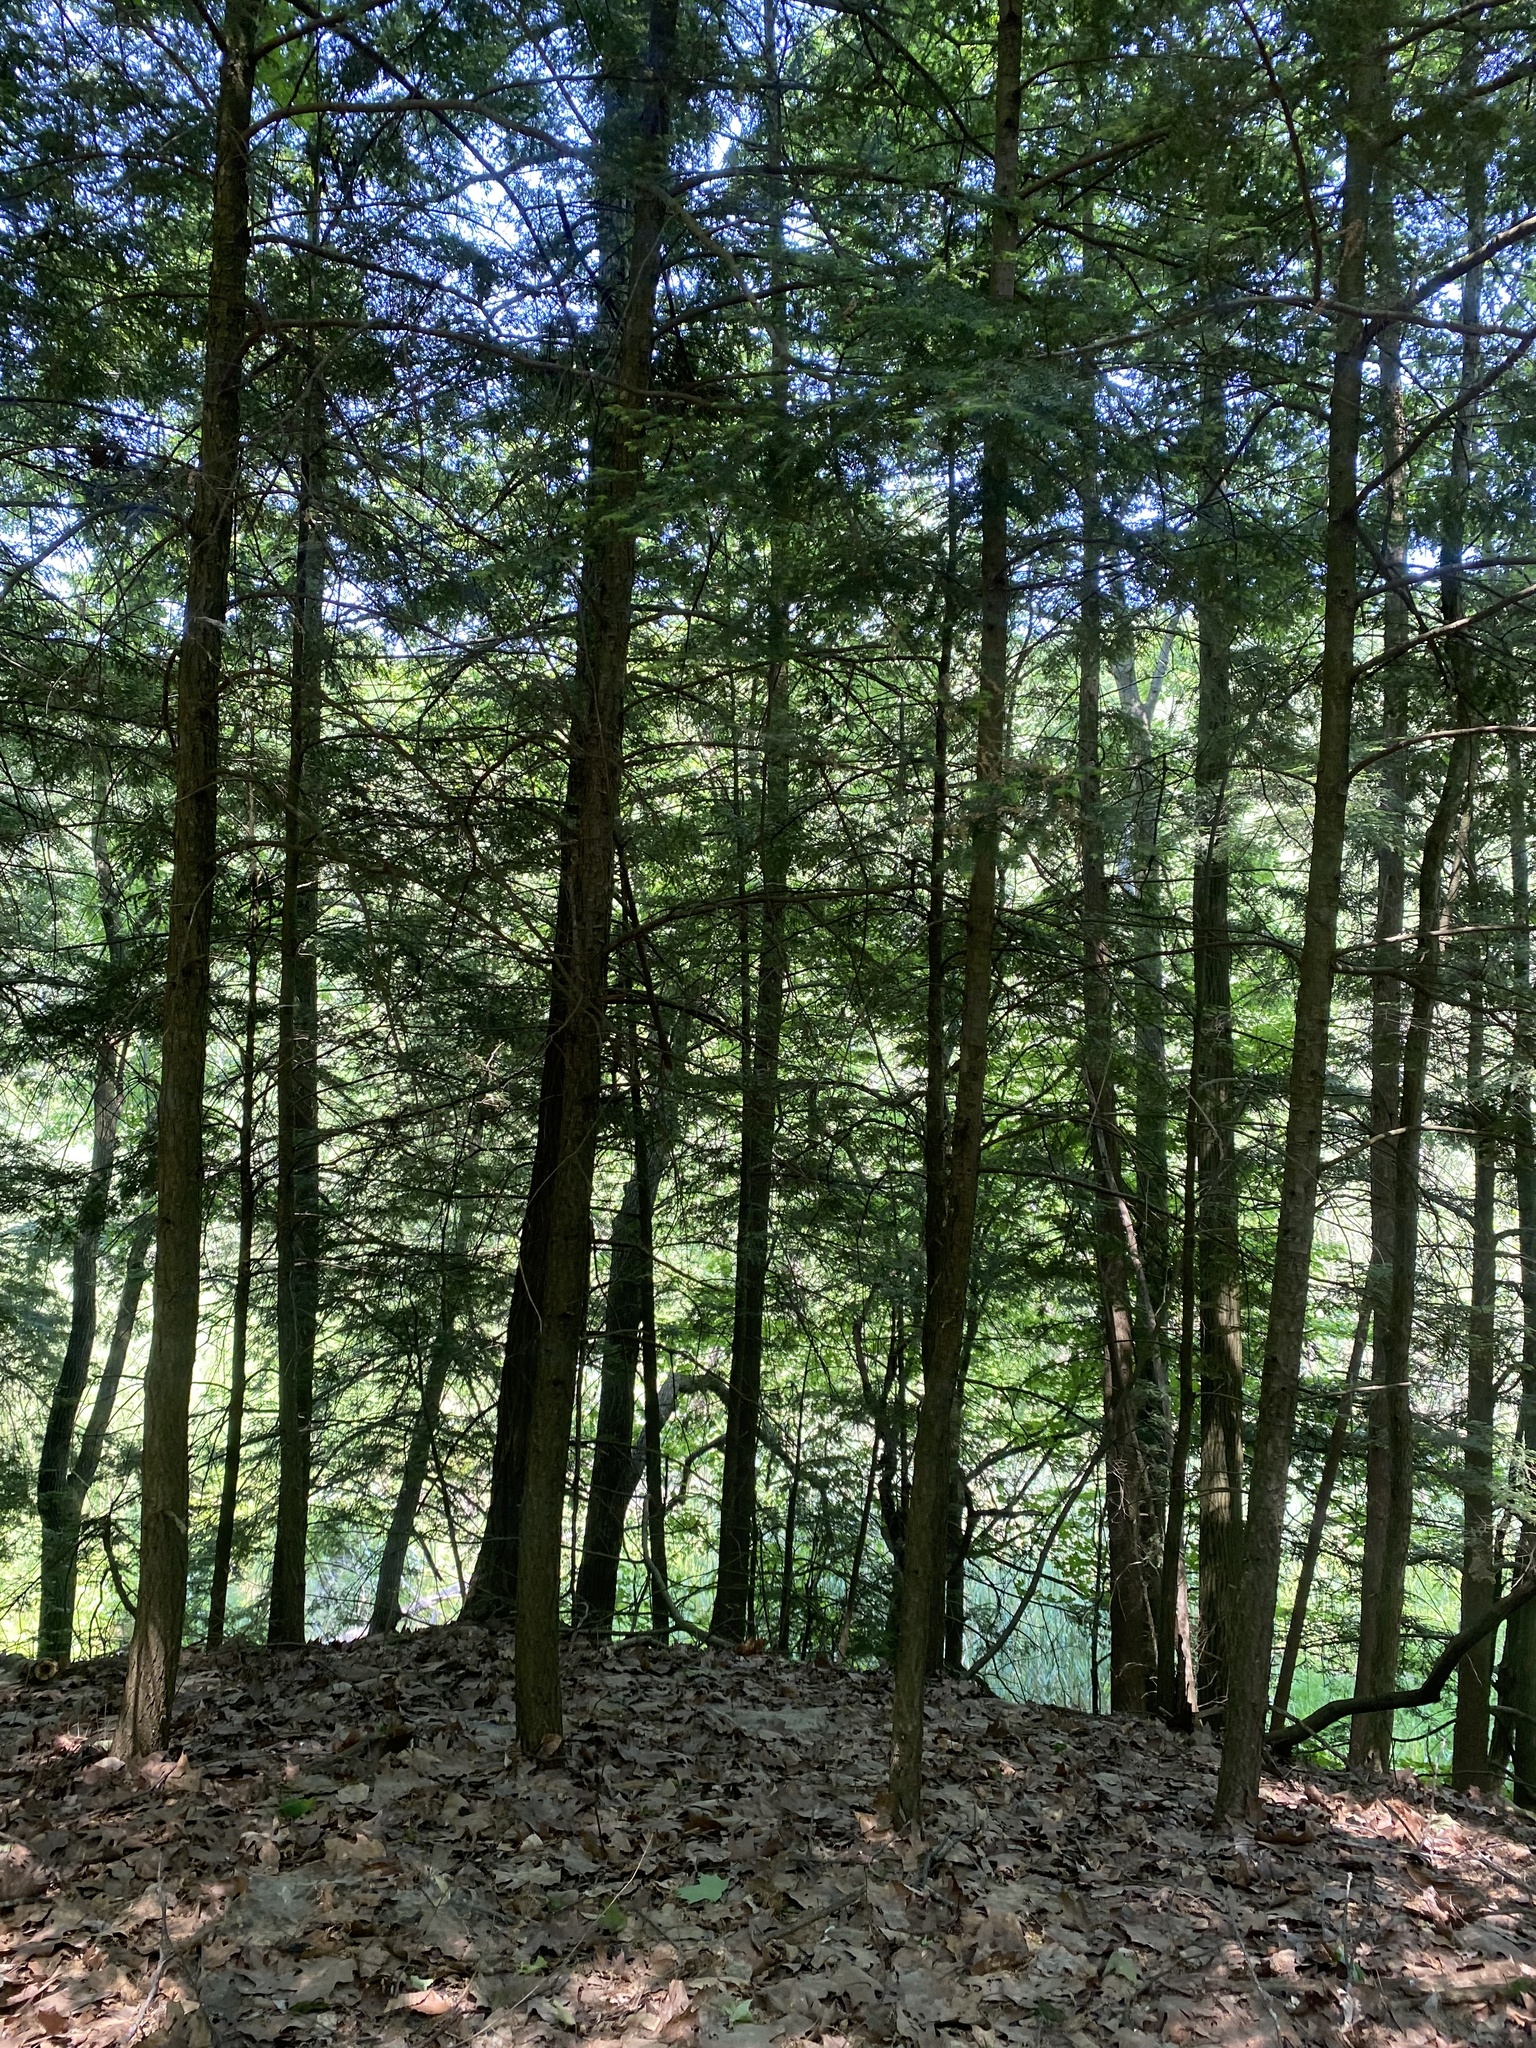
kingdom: Plantae
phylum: Tracheophyta
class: Pinopsida
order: Pinales
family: Pinaceae
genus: Tsuga
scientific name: Tsuga canadensis
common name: Eastern hemlock
